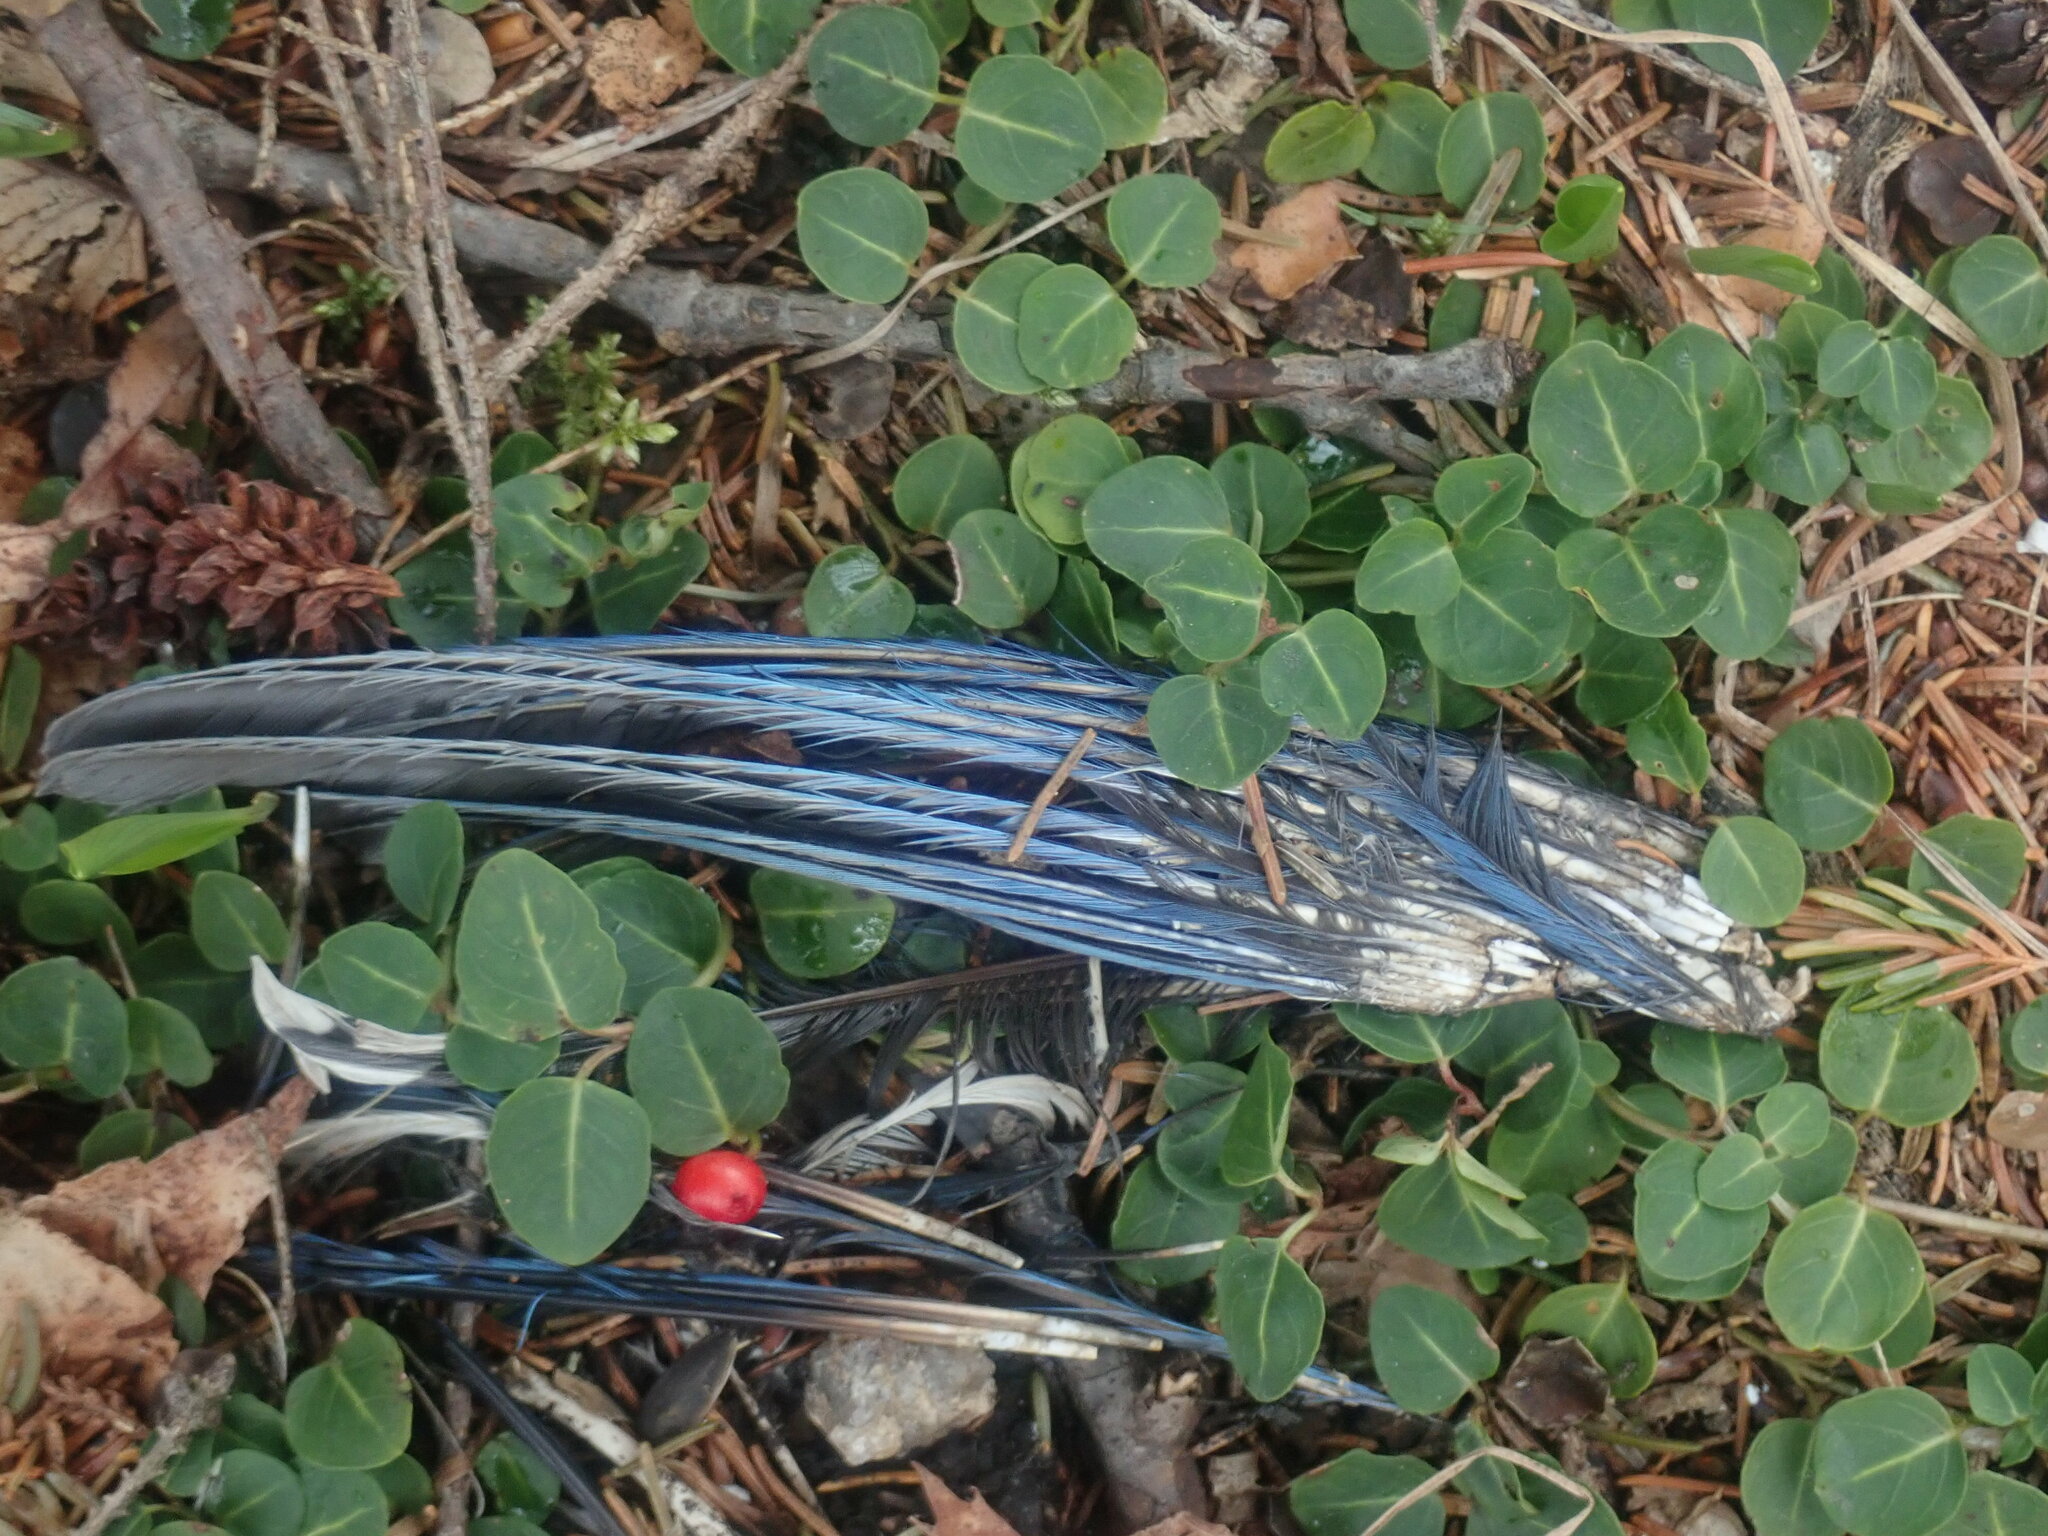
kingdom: Animalia
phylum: Chordata
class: Aves
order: Passeriformes
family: Corvidae
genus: Cyanocitta
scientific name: Cyanocitta cristata
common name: Blue jay
